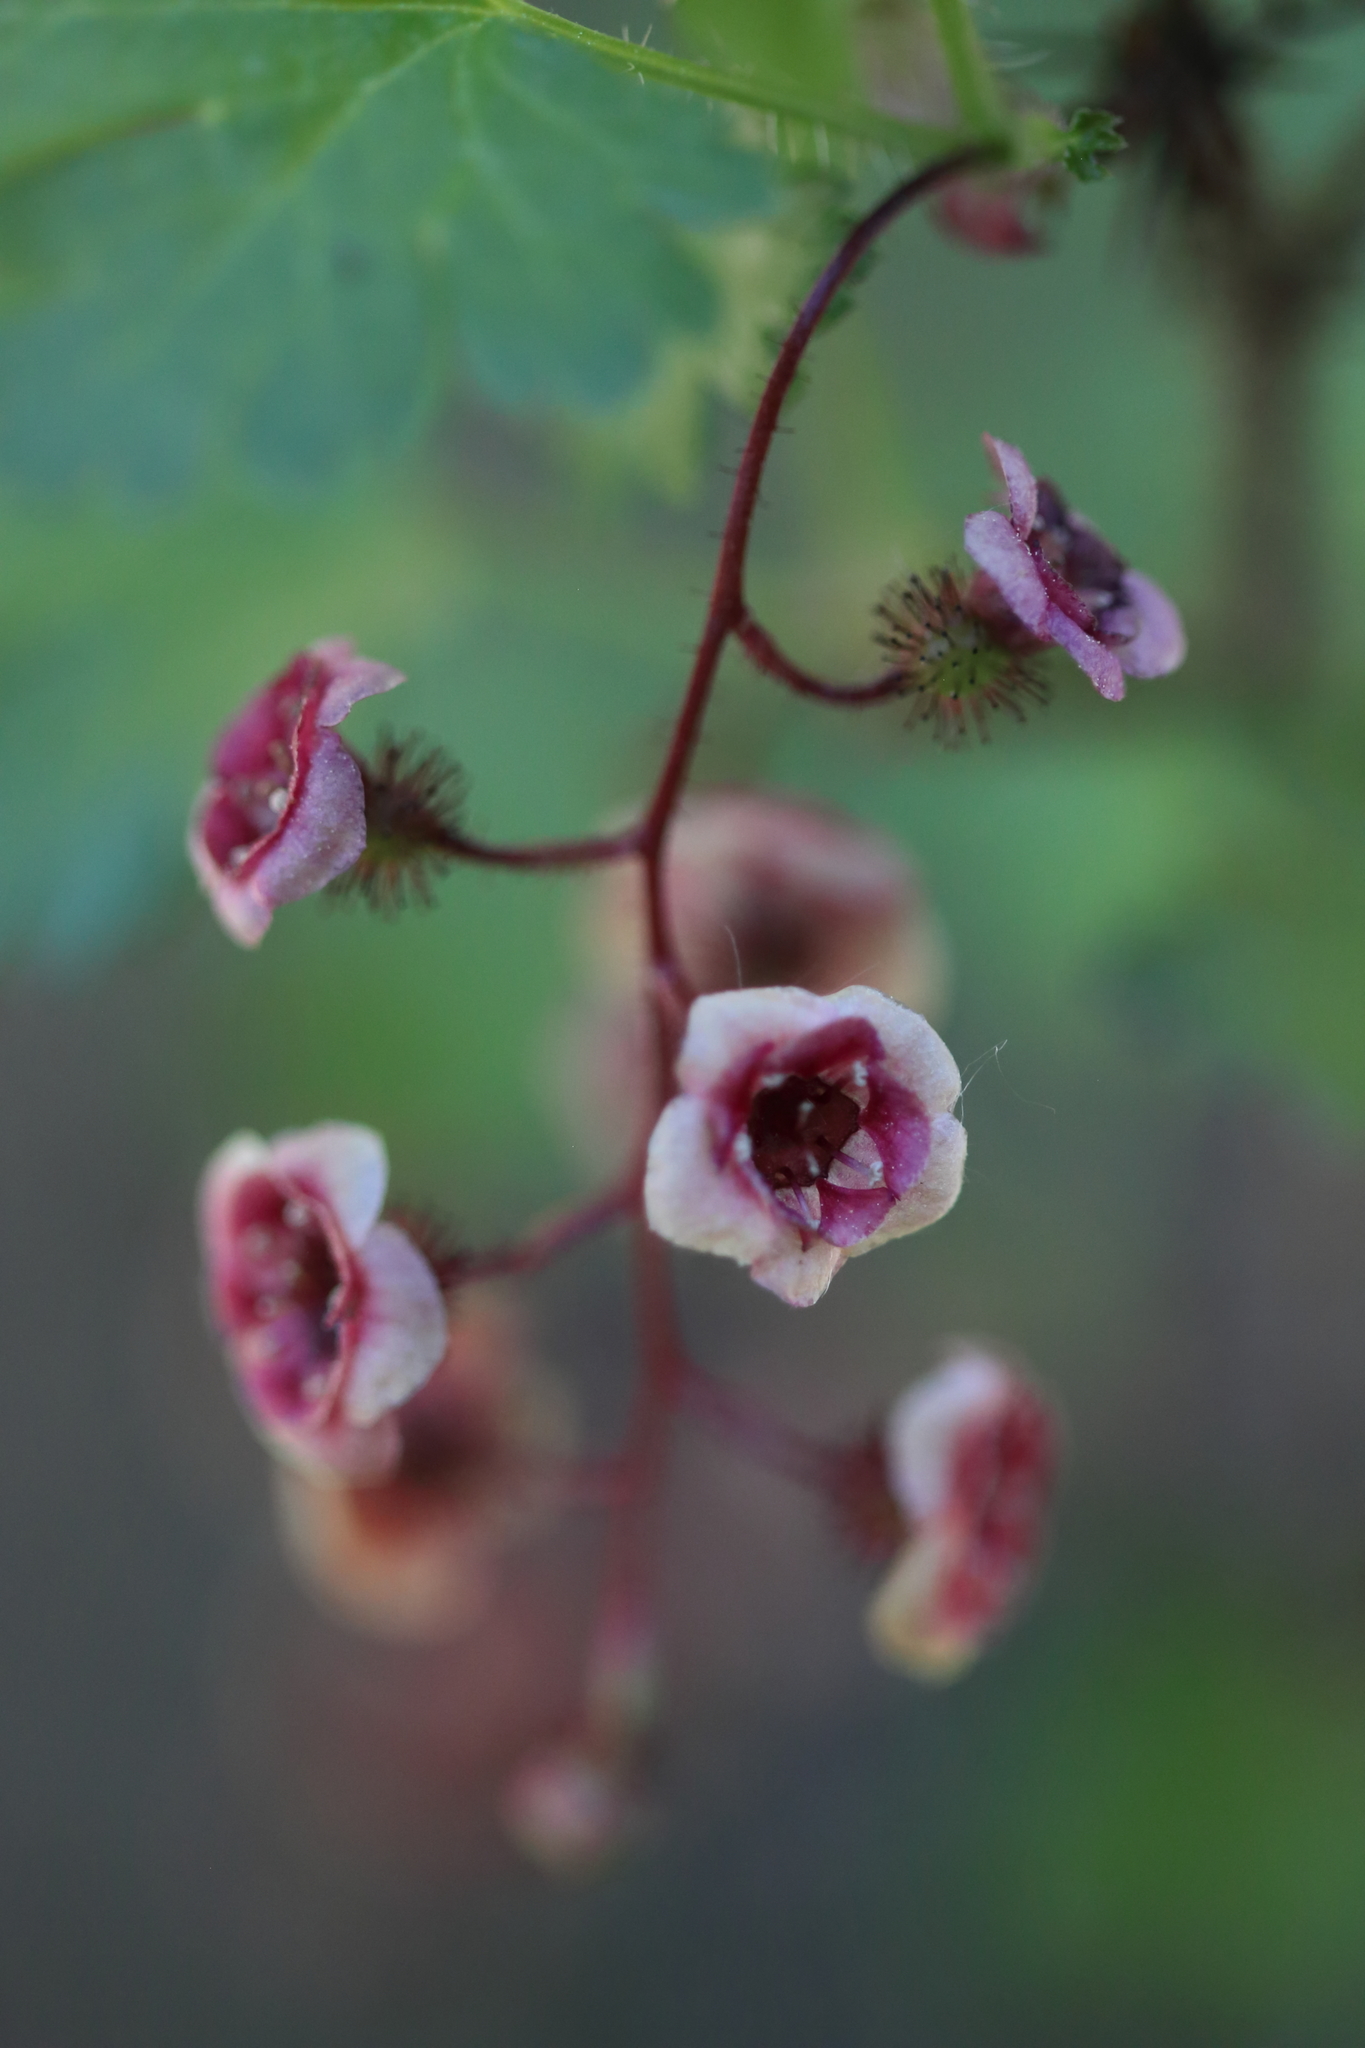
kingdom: Plantae
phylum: Tracheophyta
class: Magnoliopsida
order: Saxifragales
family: Grossulariaceae
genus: Ribes
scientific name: Ribes lacustre
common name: Black gooseberry
